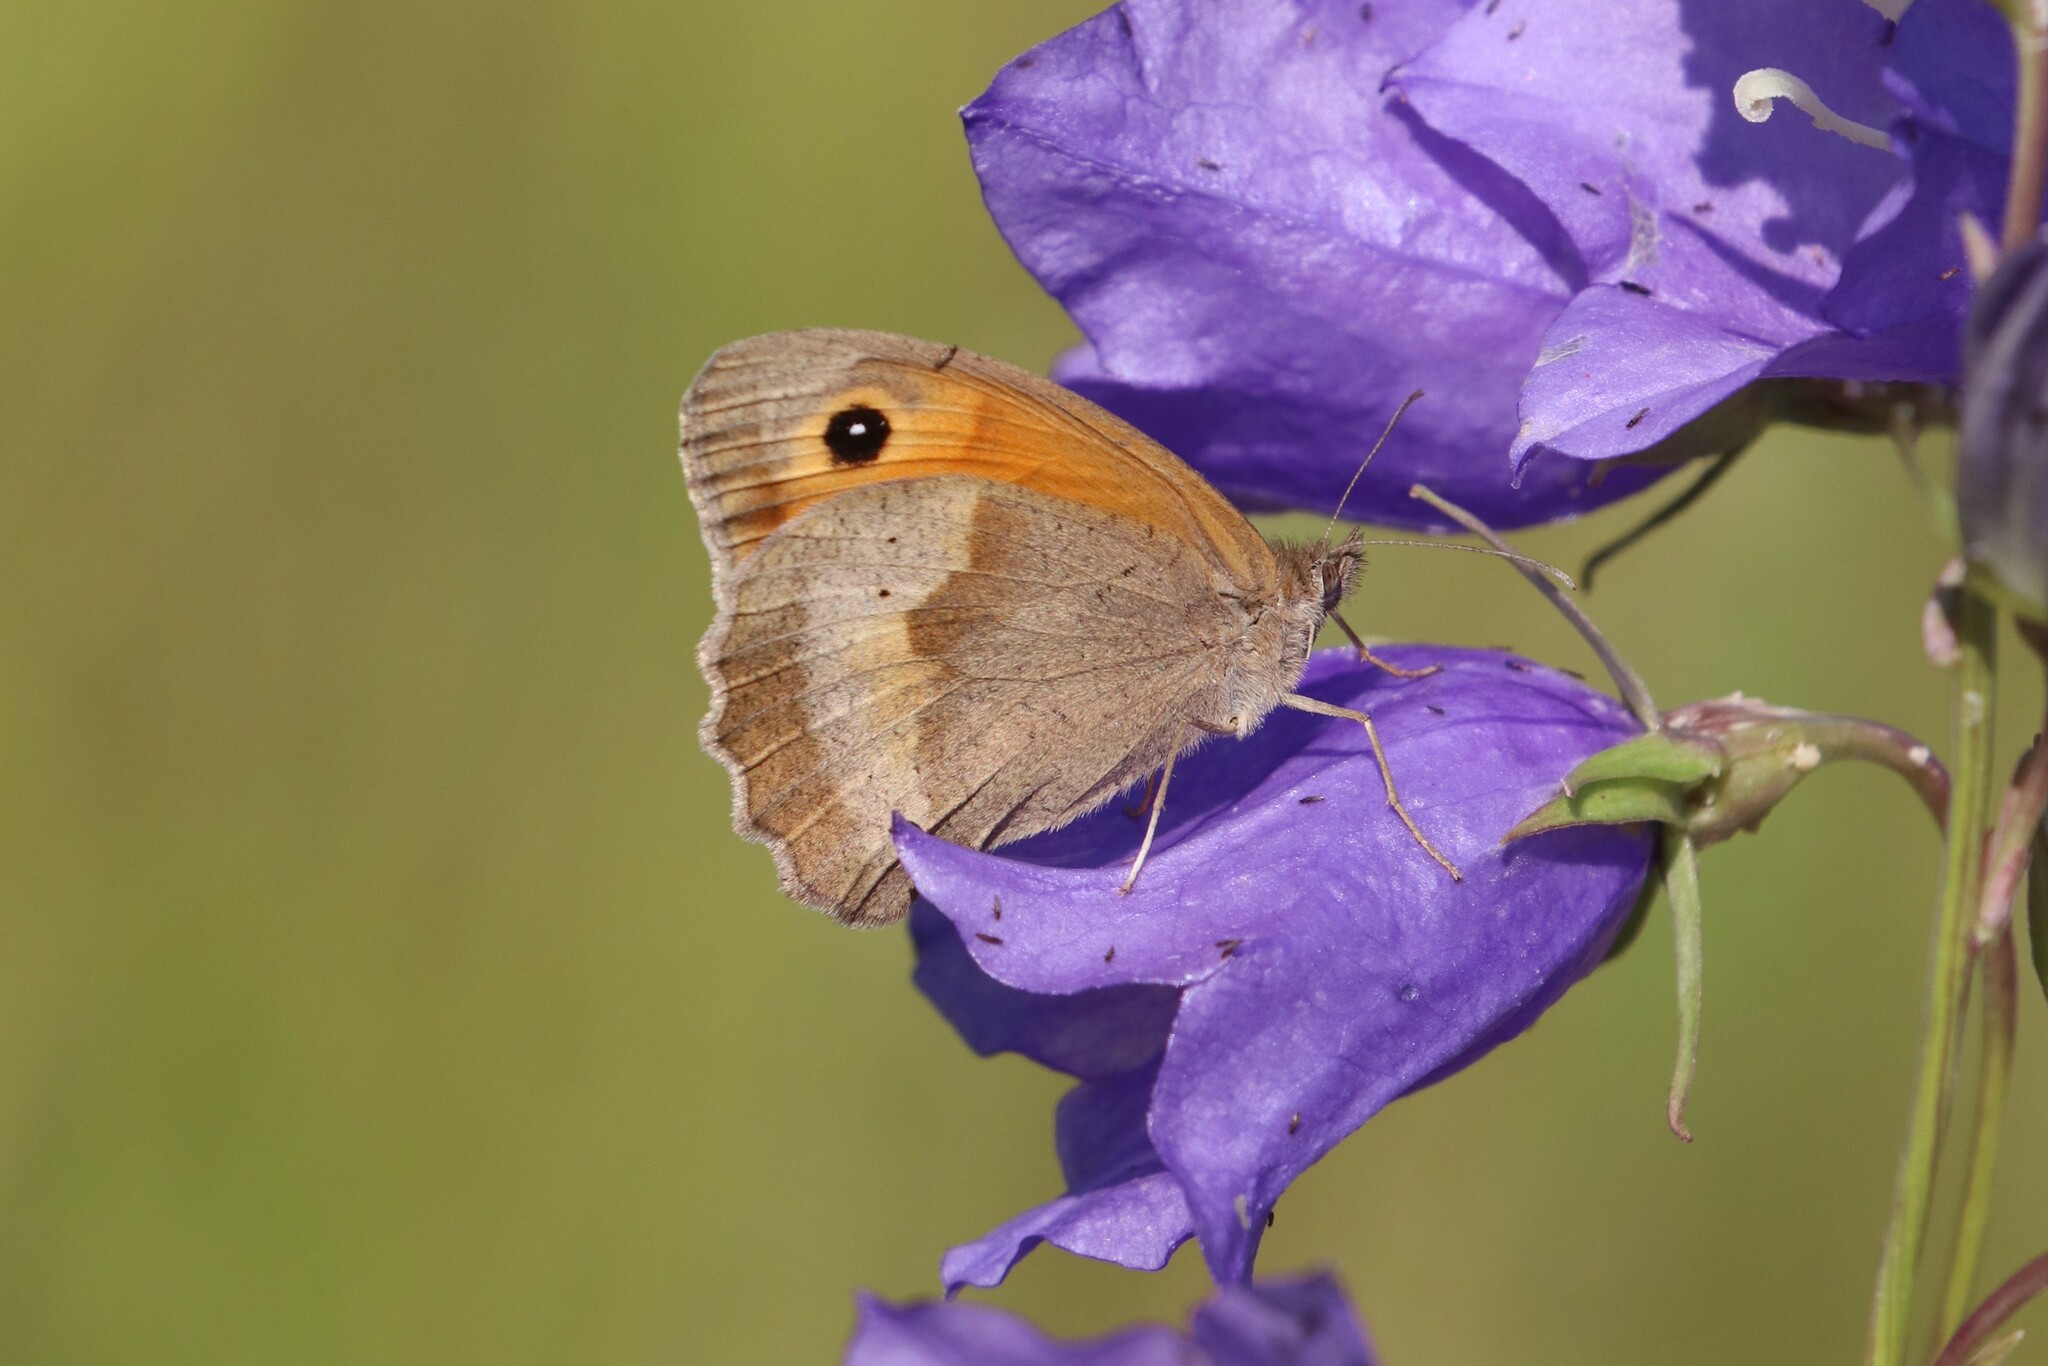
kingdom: Animalia
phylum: Arthropoda
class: Insecta
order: Lepidoptera
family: Nymphalidae
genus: Maniola
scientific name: Maniola jurtina
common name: Meadow brown
